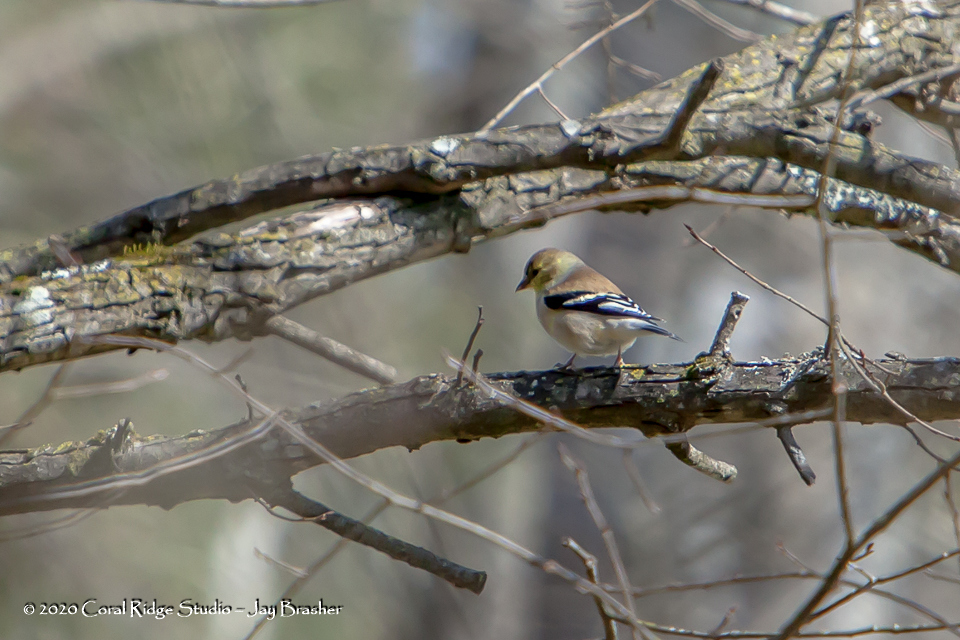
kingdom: Animalia
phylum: Chordata
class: Aves
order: Passeriformes
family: Fringillidae
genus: Spinus
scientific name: Spinus tristis
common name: American goldfinch
